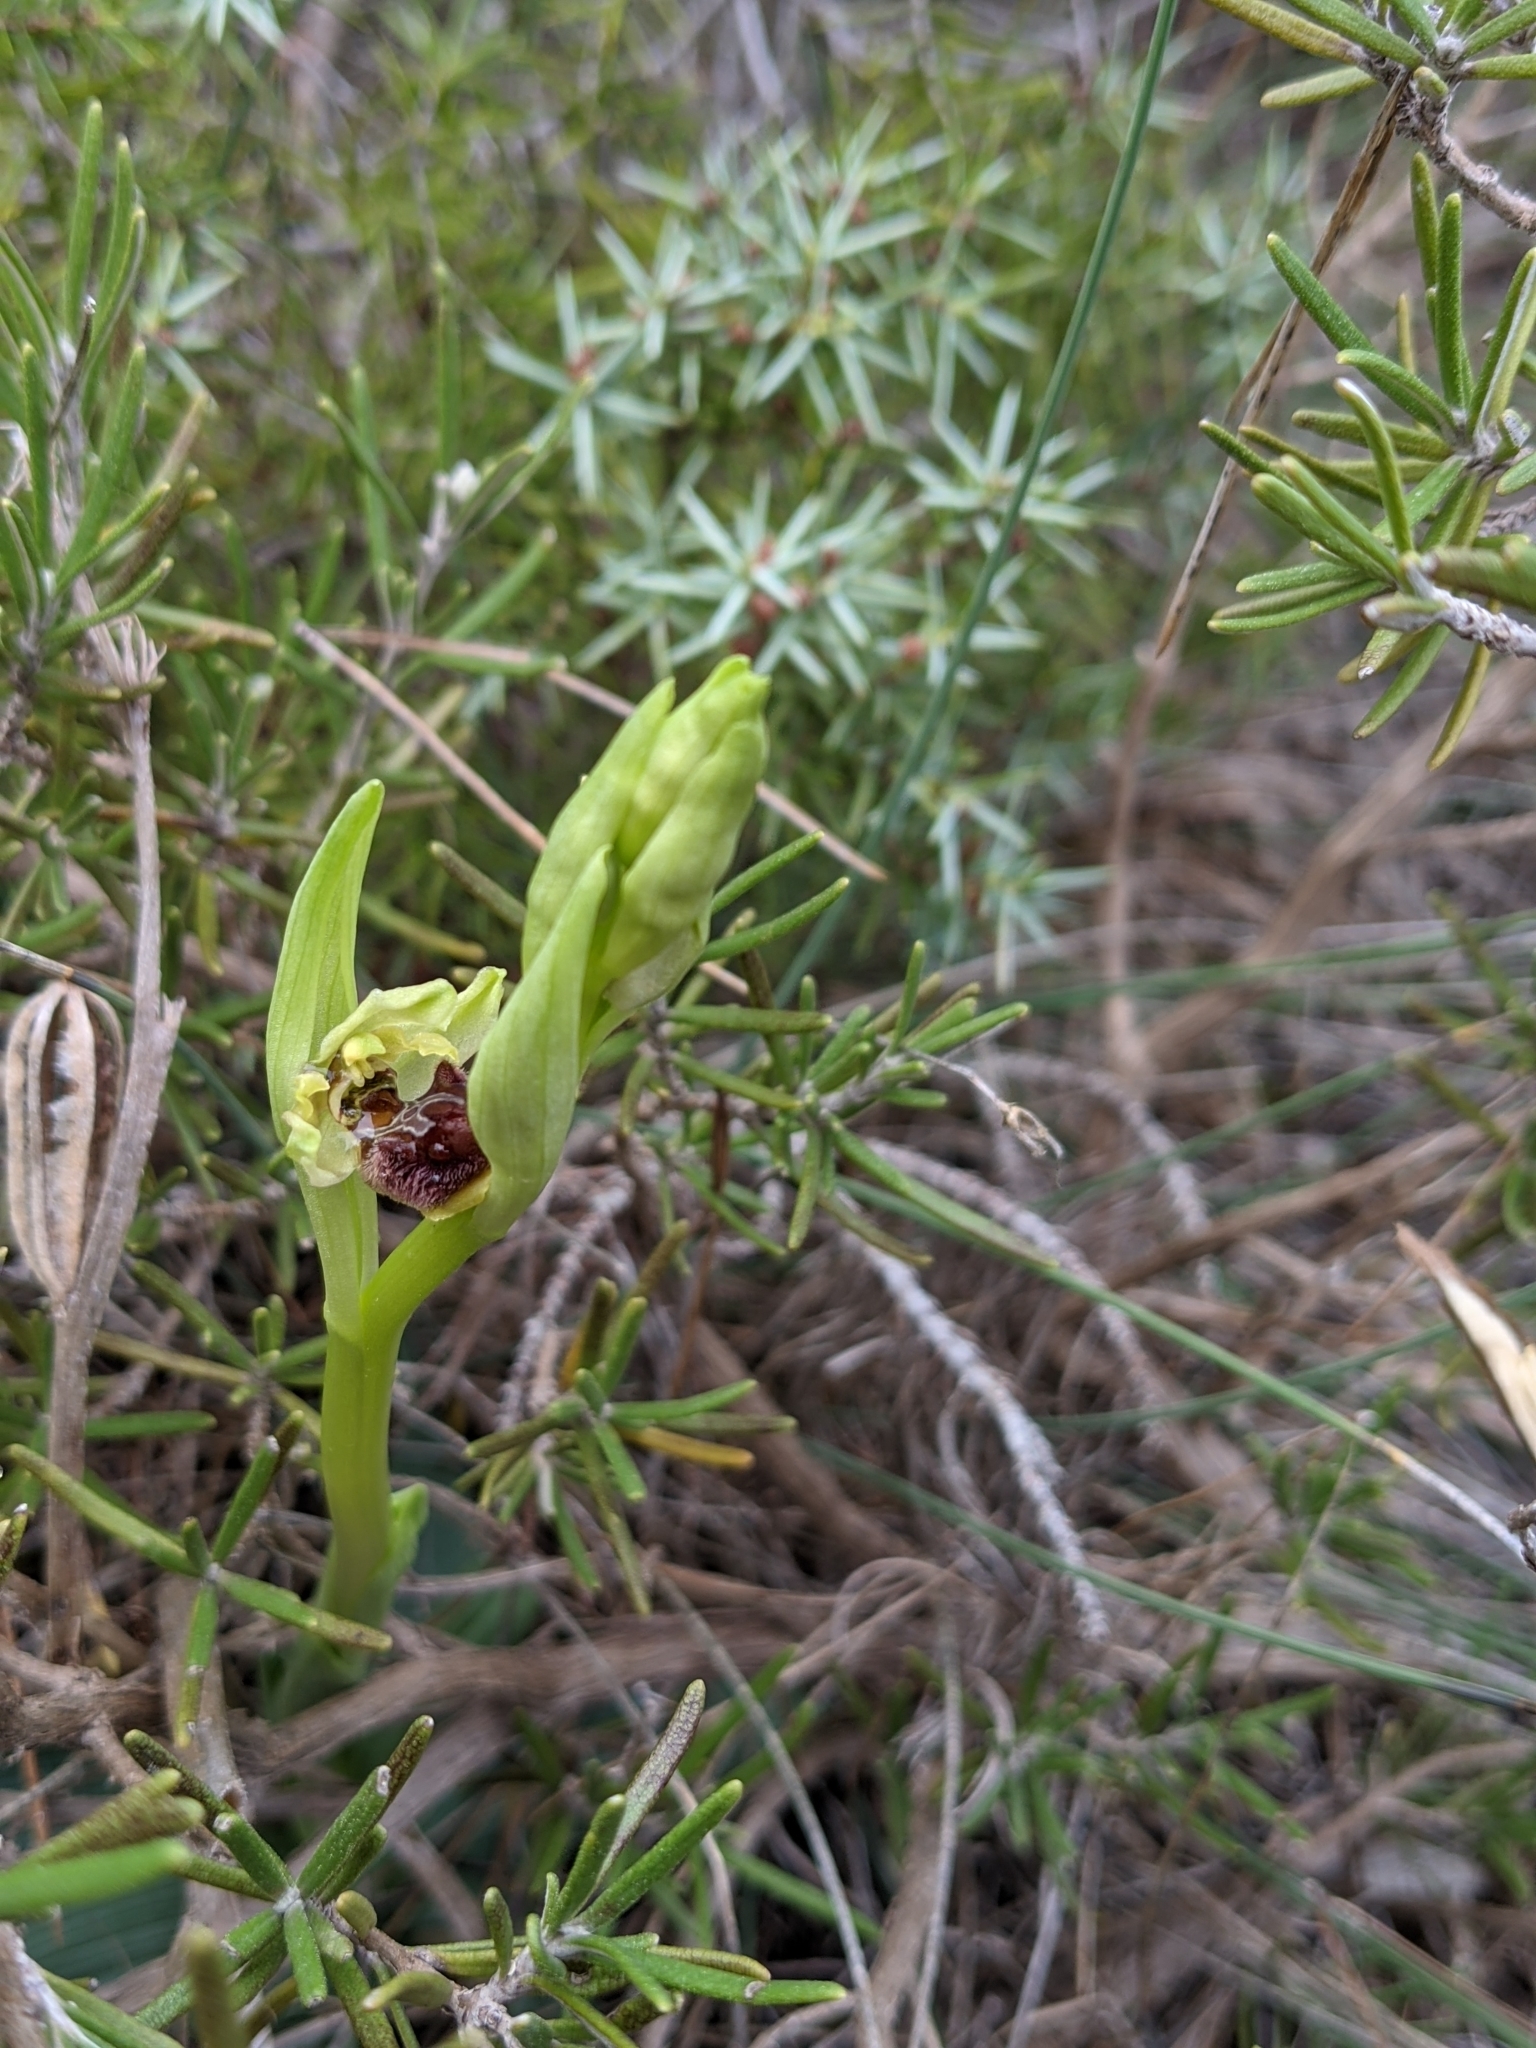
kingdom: Plantae
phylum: Tracheophyta
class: Liliopsida
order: Asparagales
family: Orchidaceae
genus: Ophrys
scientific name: Ophrys sphegodes
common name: Early spider-orchid
